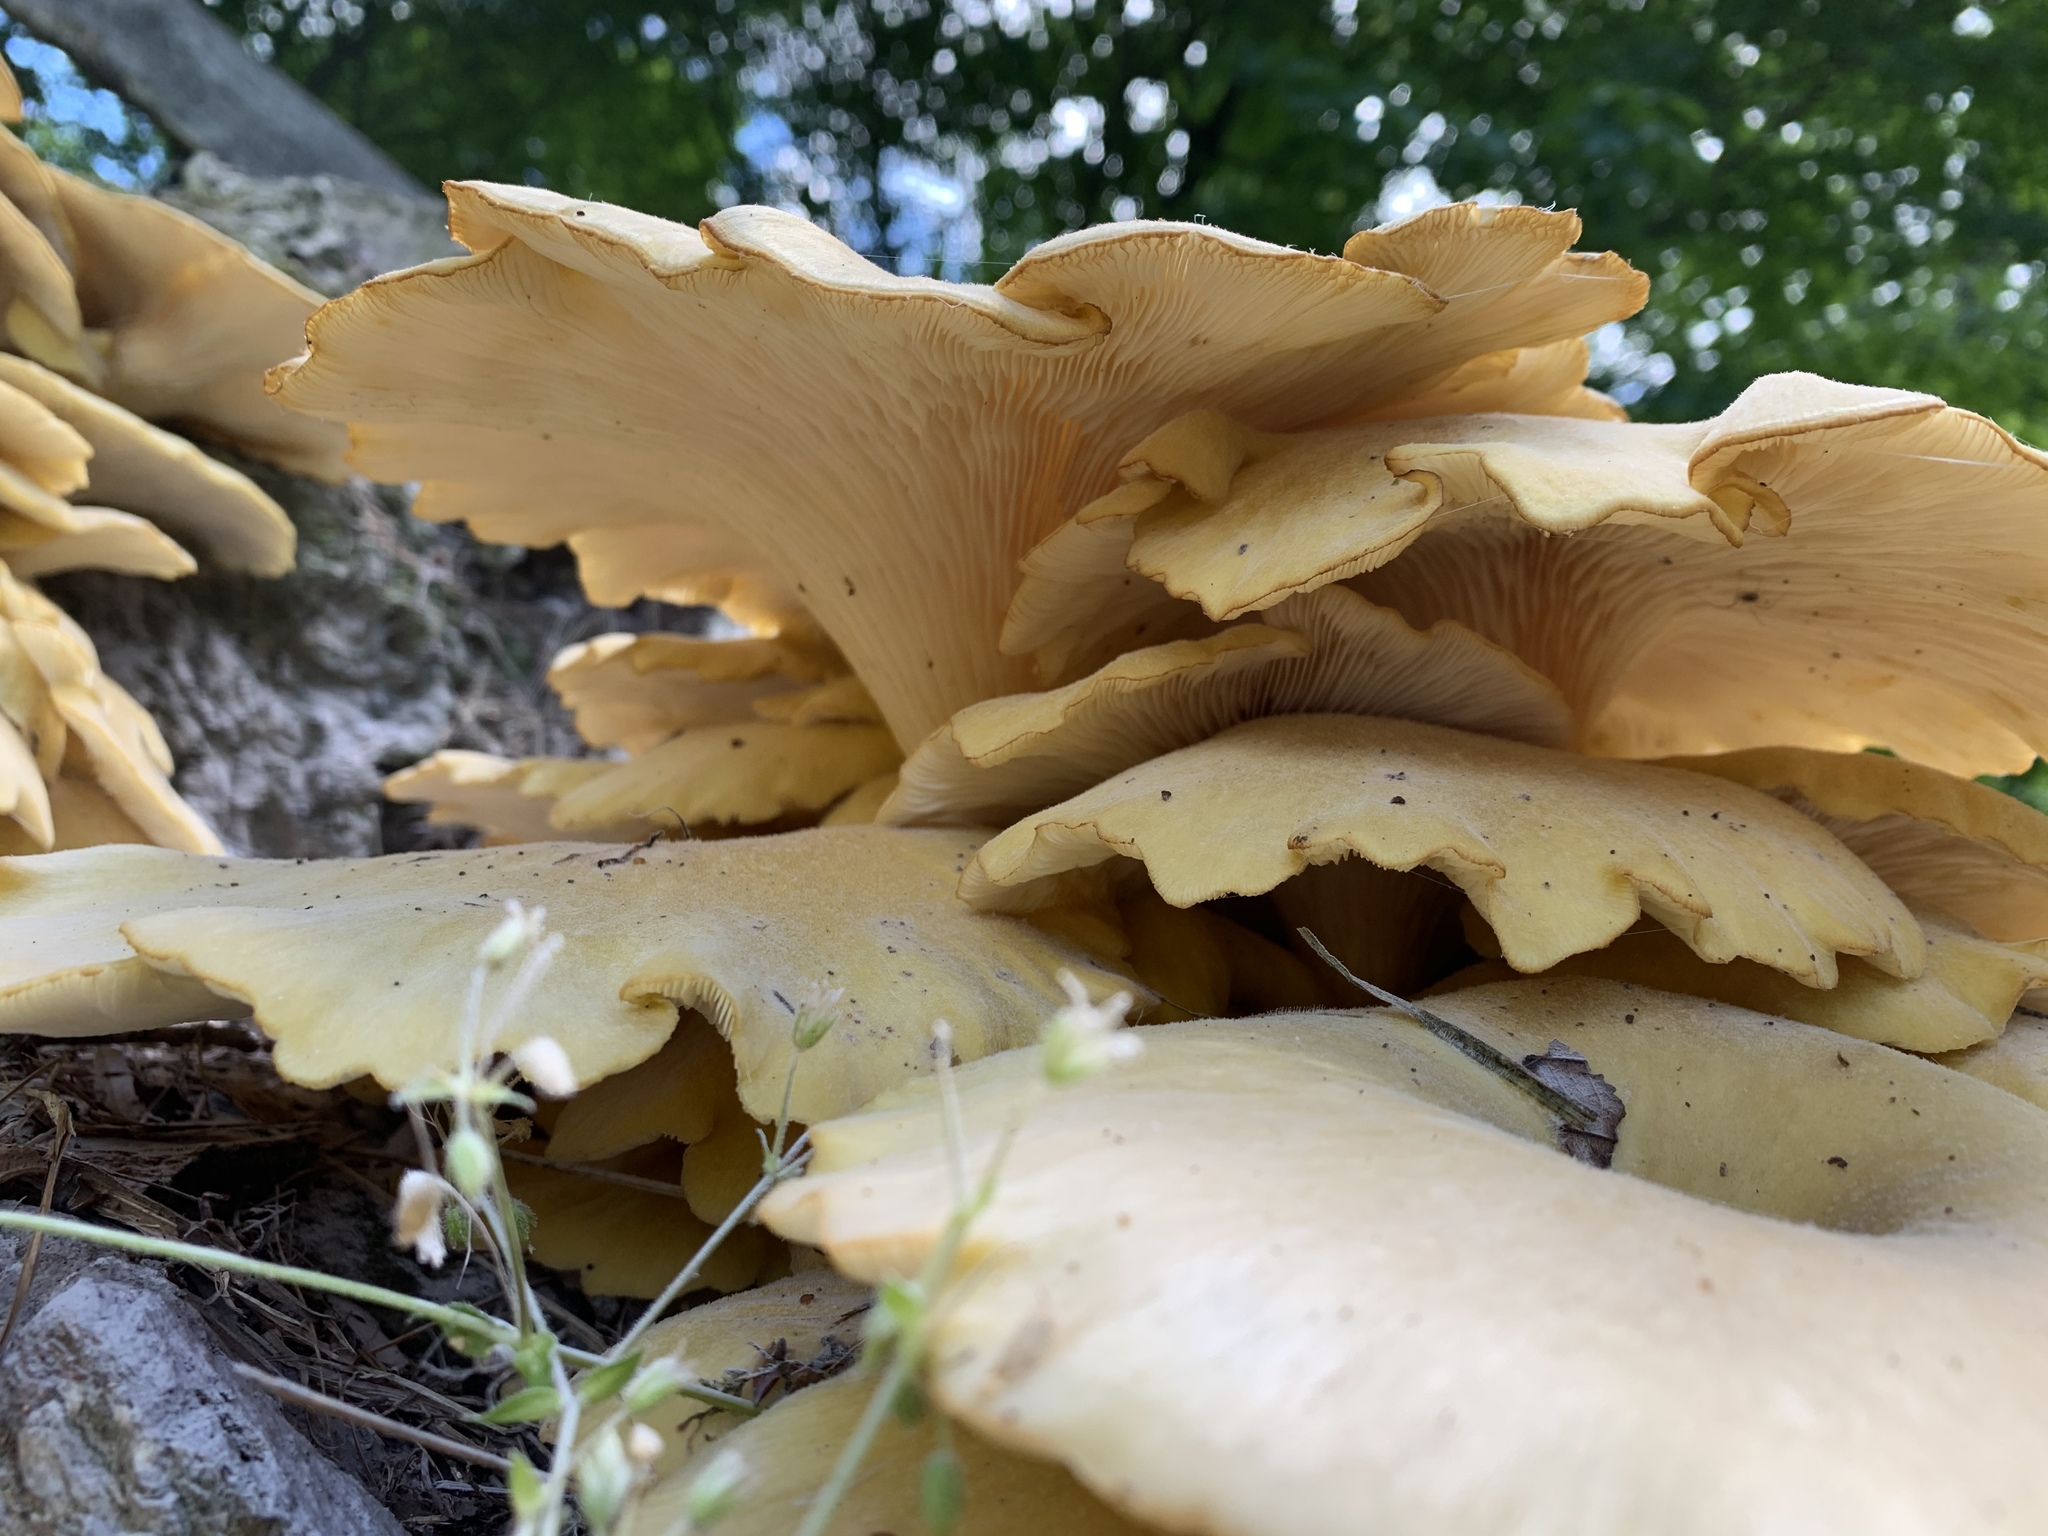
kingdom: Fungi
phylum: Basidiomycota
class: Agaricomycetes
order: Agaricales
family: Pleurotaceae
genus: Pleurotus
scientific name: Pleurotus citrinopileatus
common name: Golden oyster mushroom
